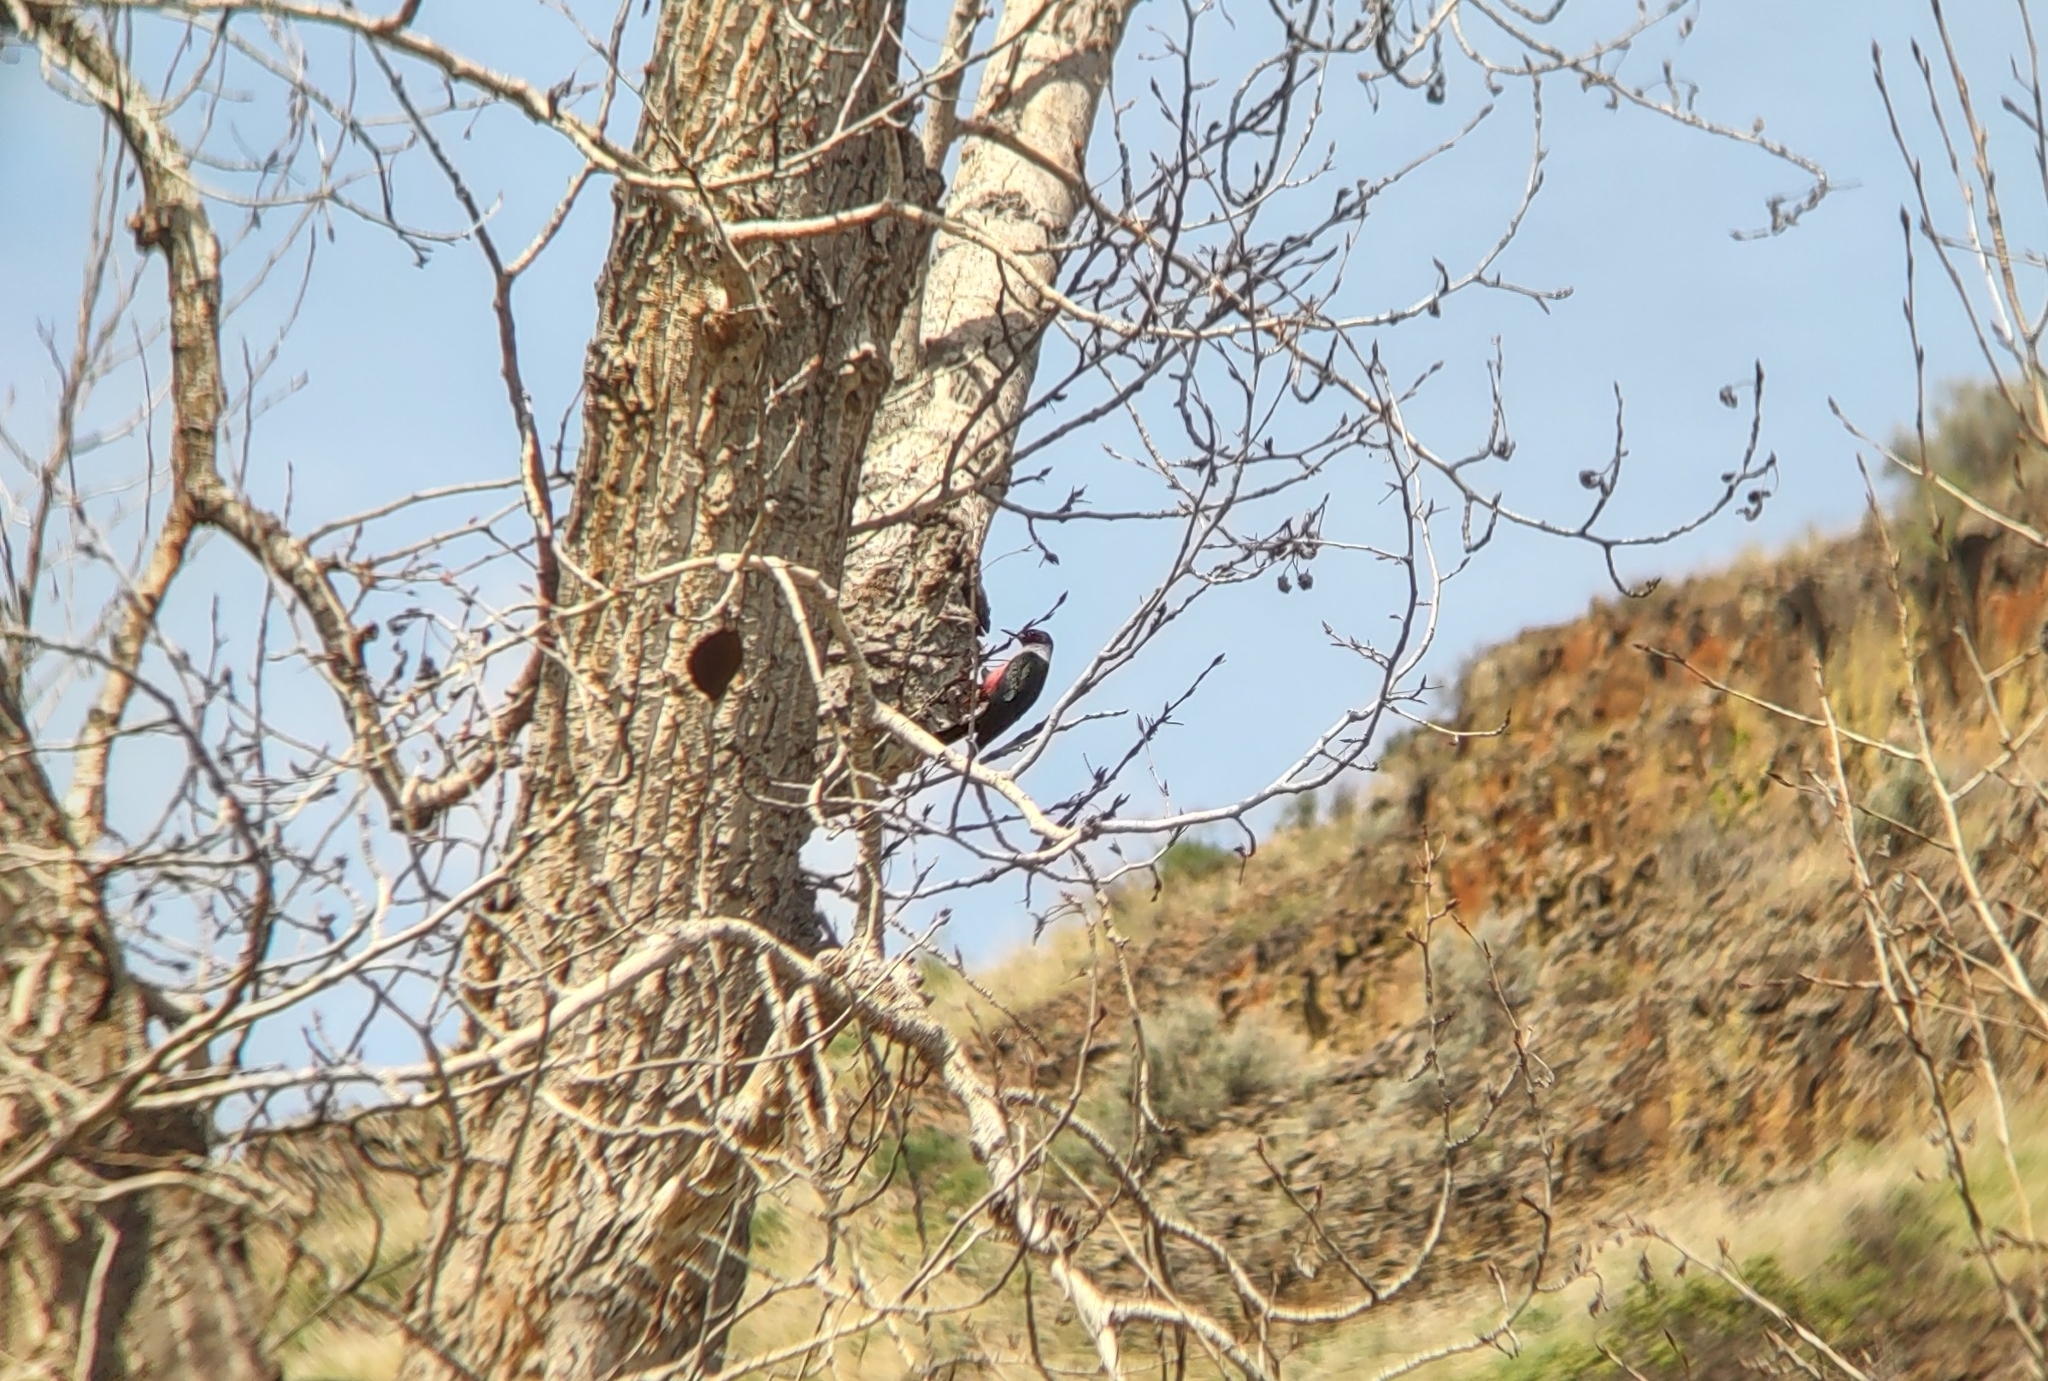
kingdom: Animalia
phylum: Chordata
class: Aves
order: Piciformes
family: Picidae
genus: Melanerpes
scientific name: Melanerpes lewis
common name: Lewis's woodpecker
